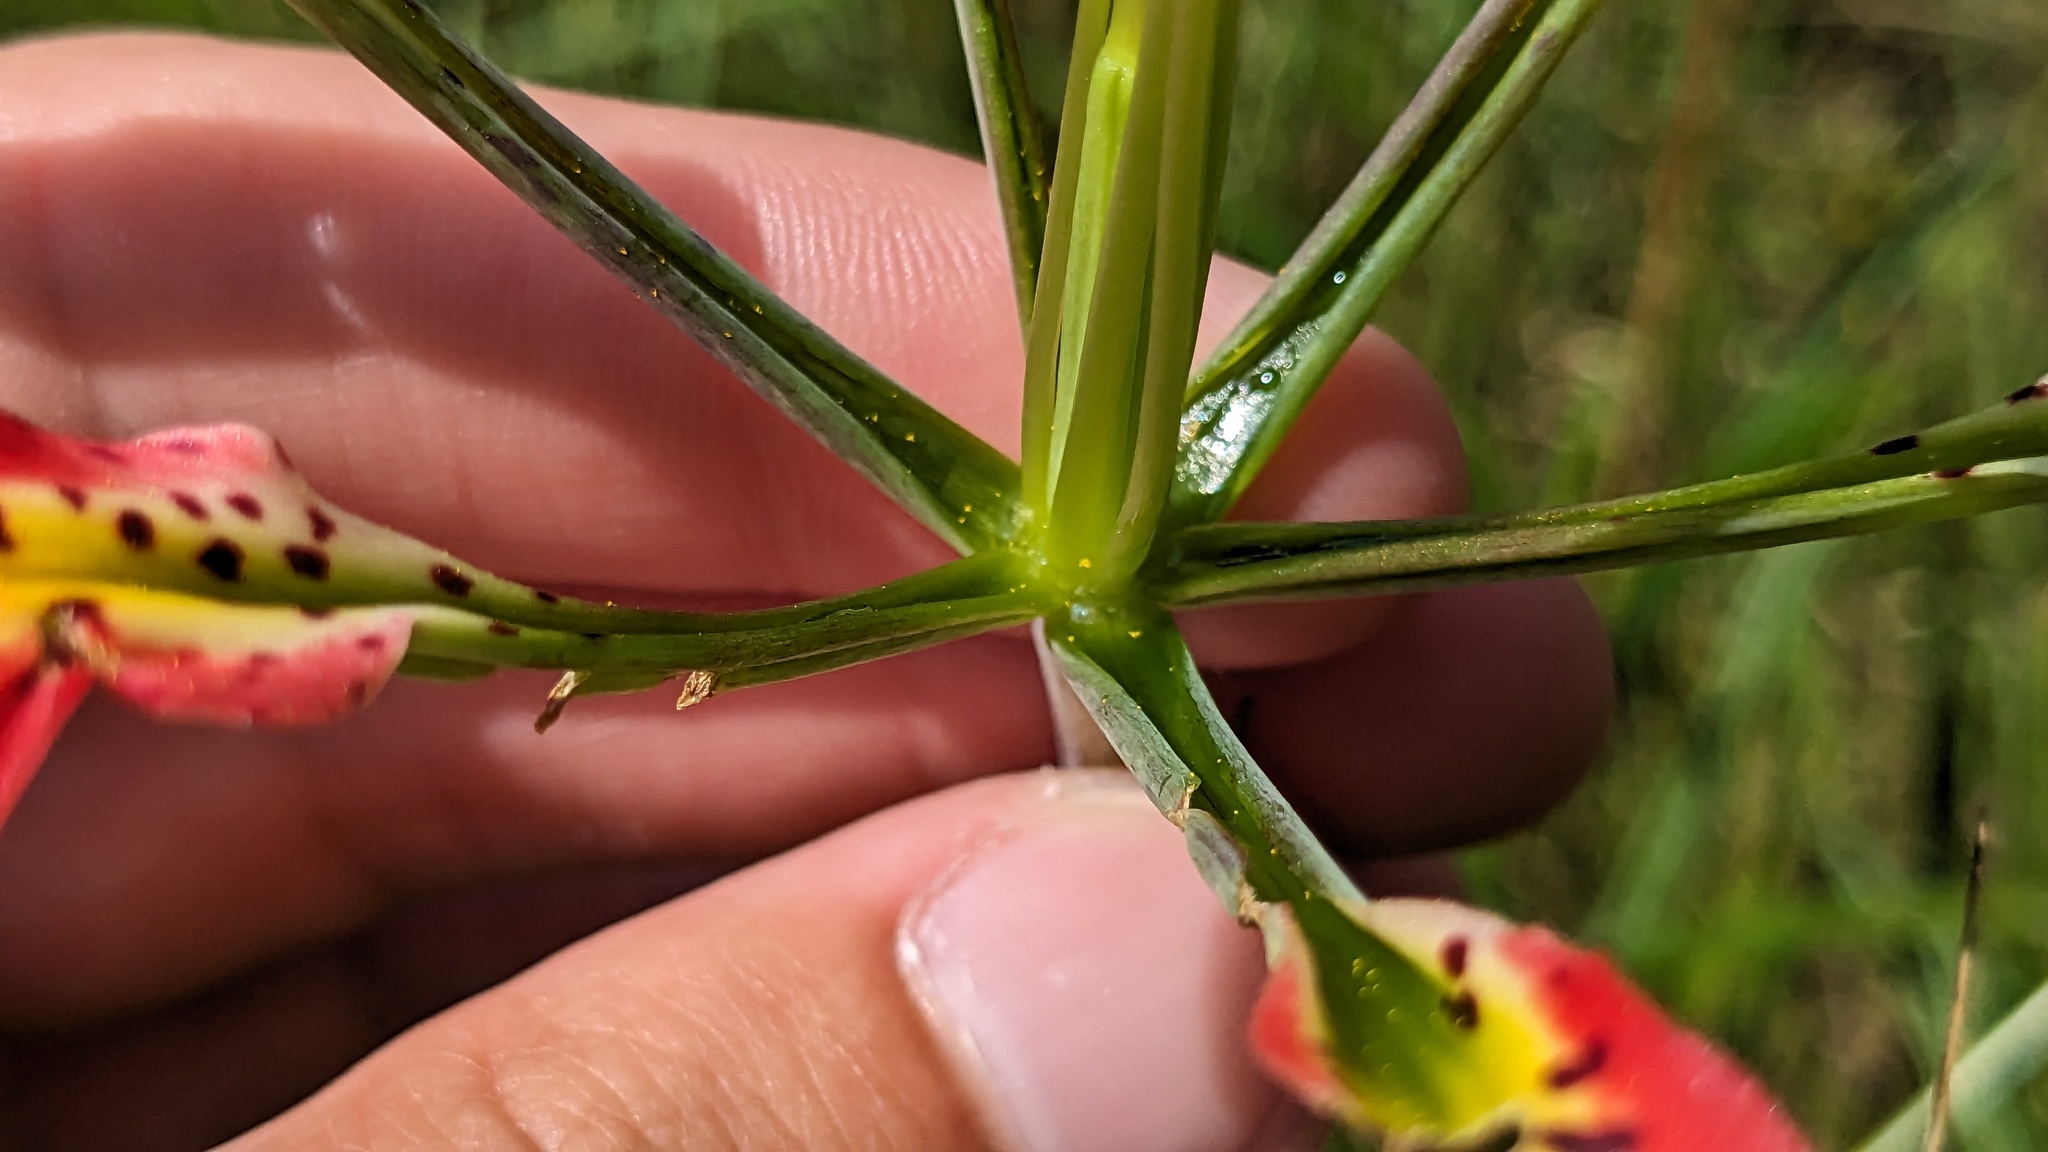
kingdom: Plantae
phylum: Tracheophyta
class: Liliopsida
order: Liliales
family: Liliaceae
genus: Lilium
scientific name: Lilium catesbaei
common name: Catesby's lily
